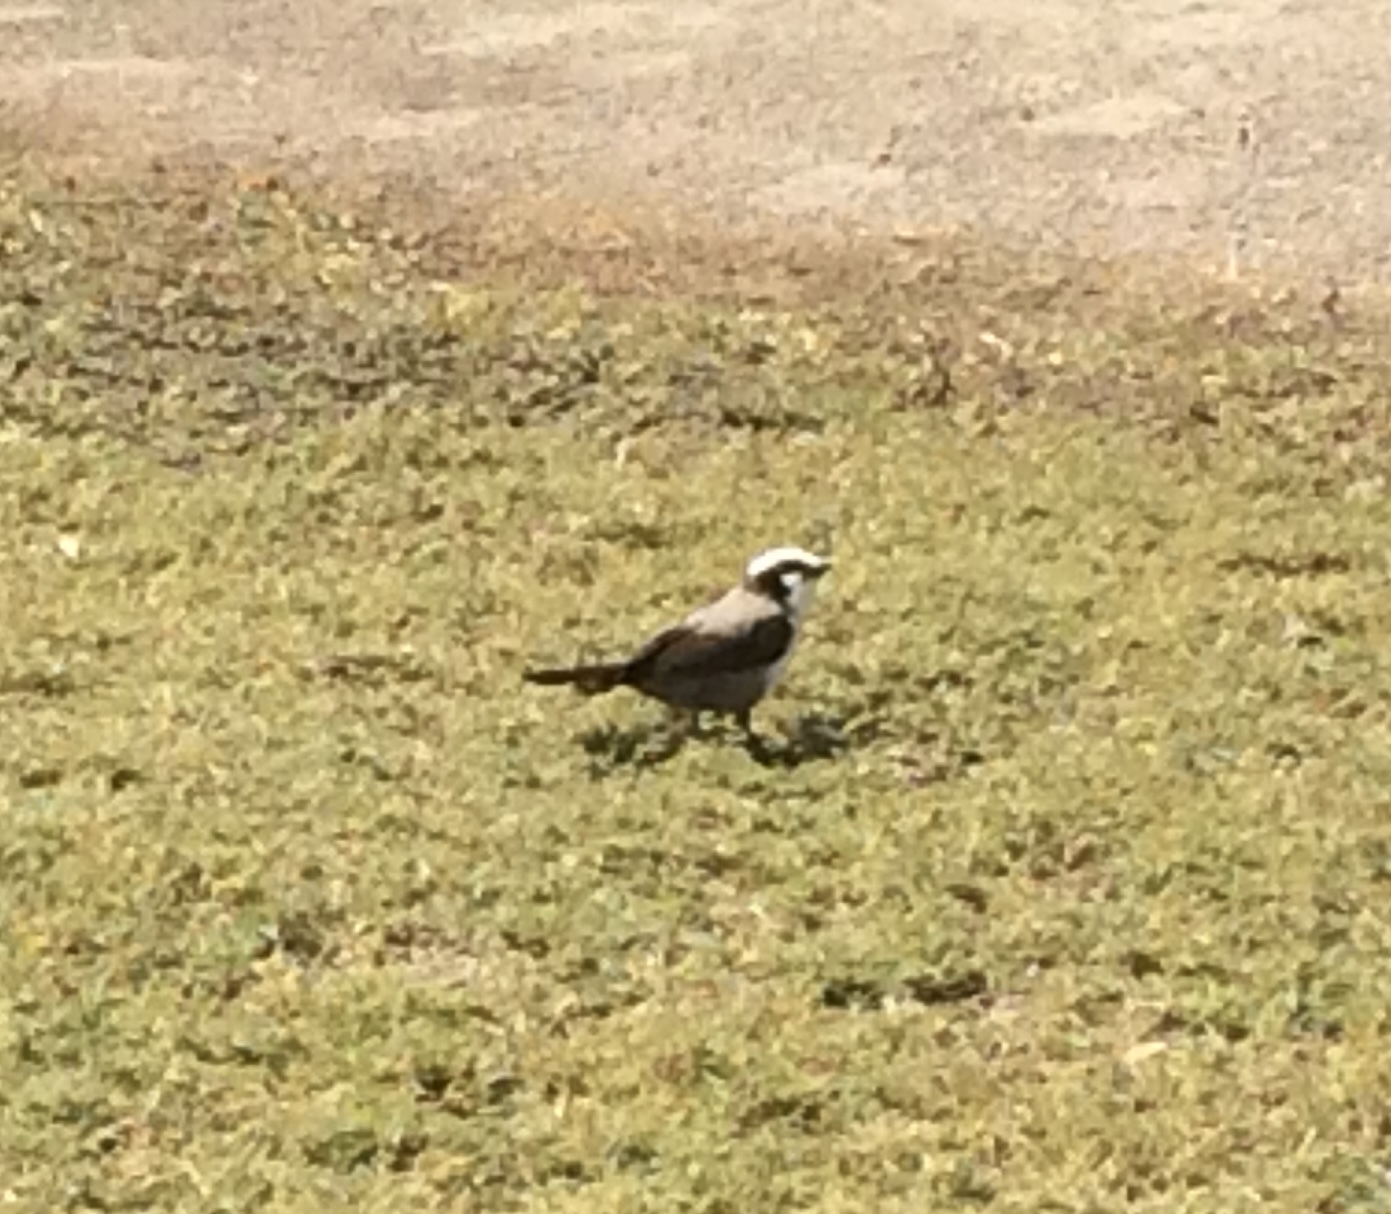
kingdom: Animalia
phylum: Chordata
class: Aves
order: Passeriformes
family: Laniidae
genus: Eurocephalus
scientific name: Eurocephalus anguitimens
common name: Southern white-crowned shrike
